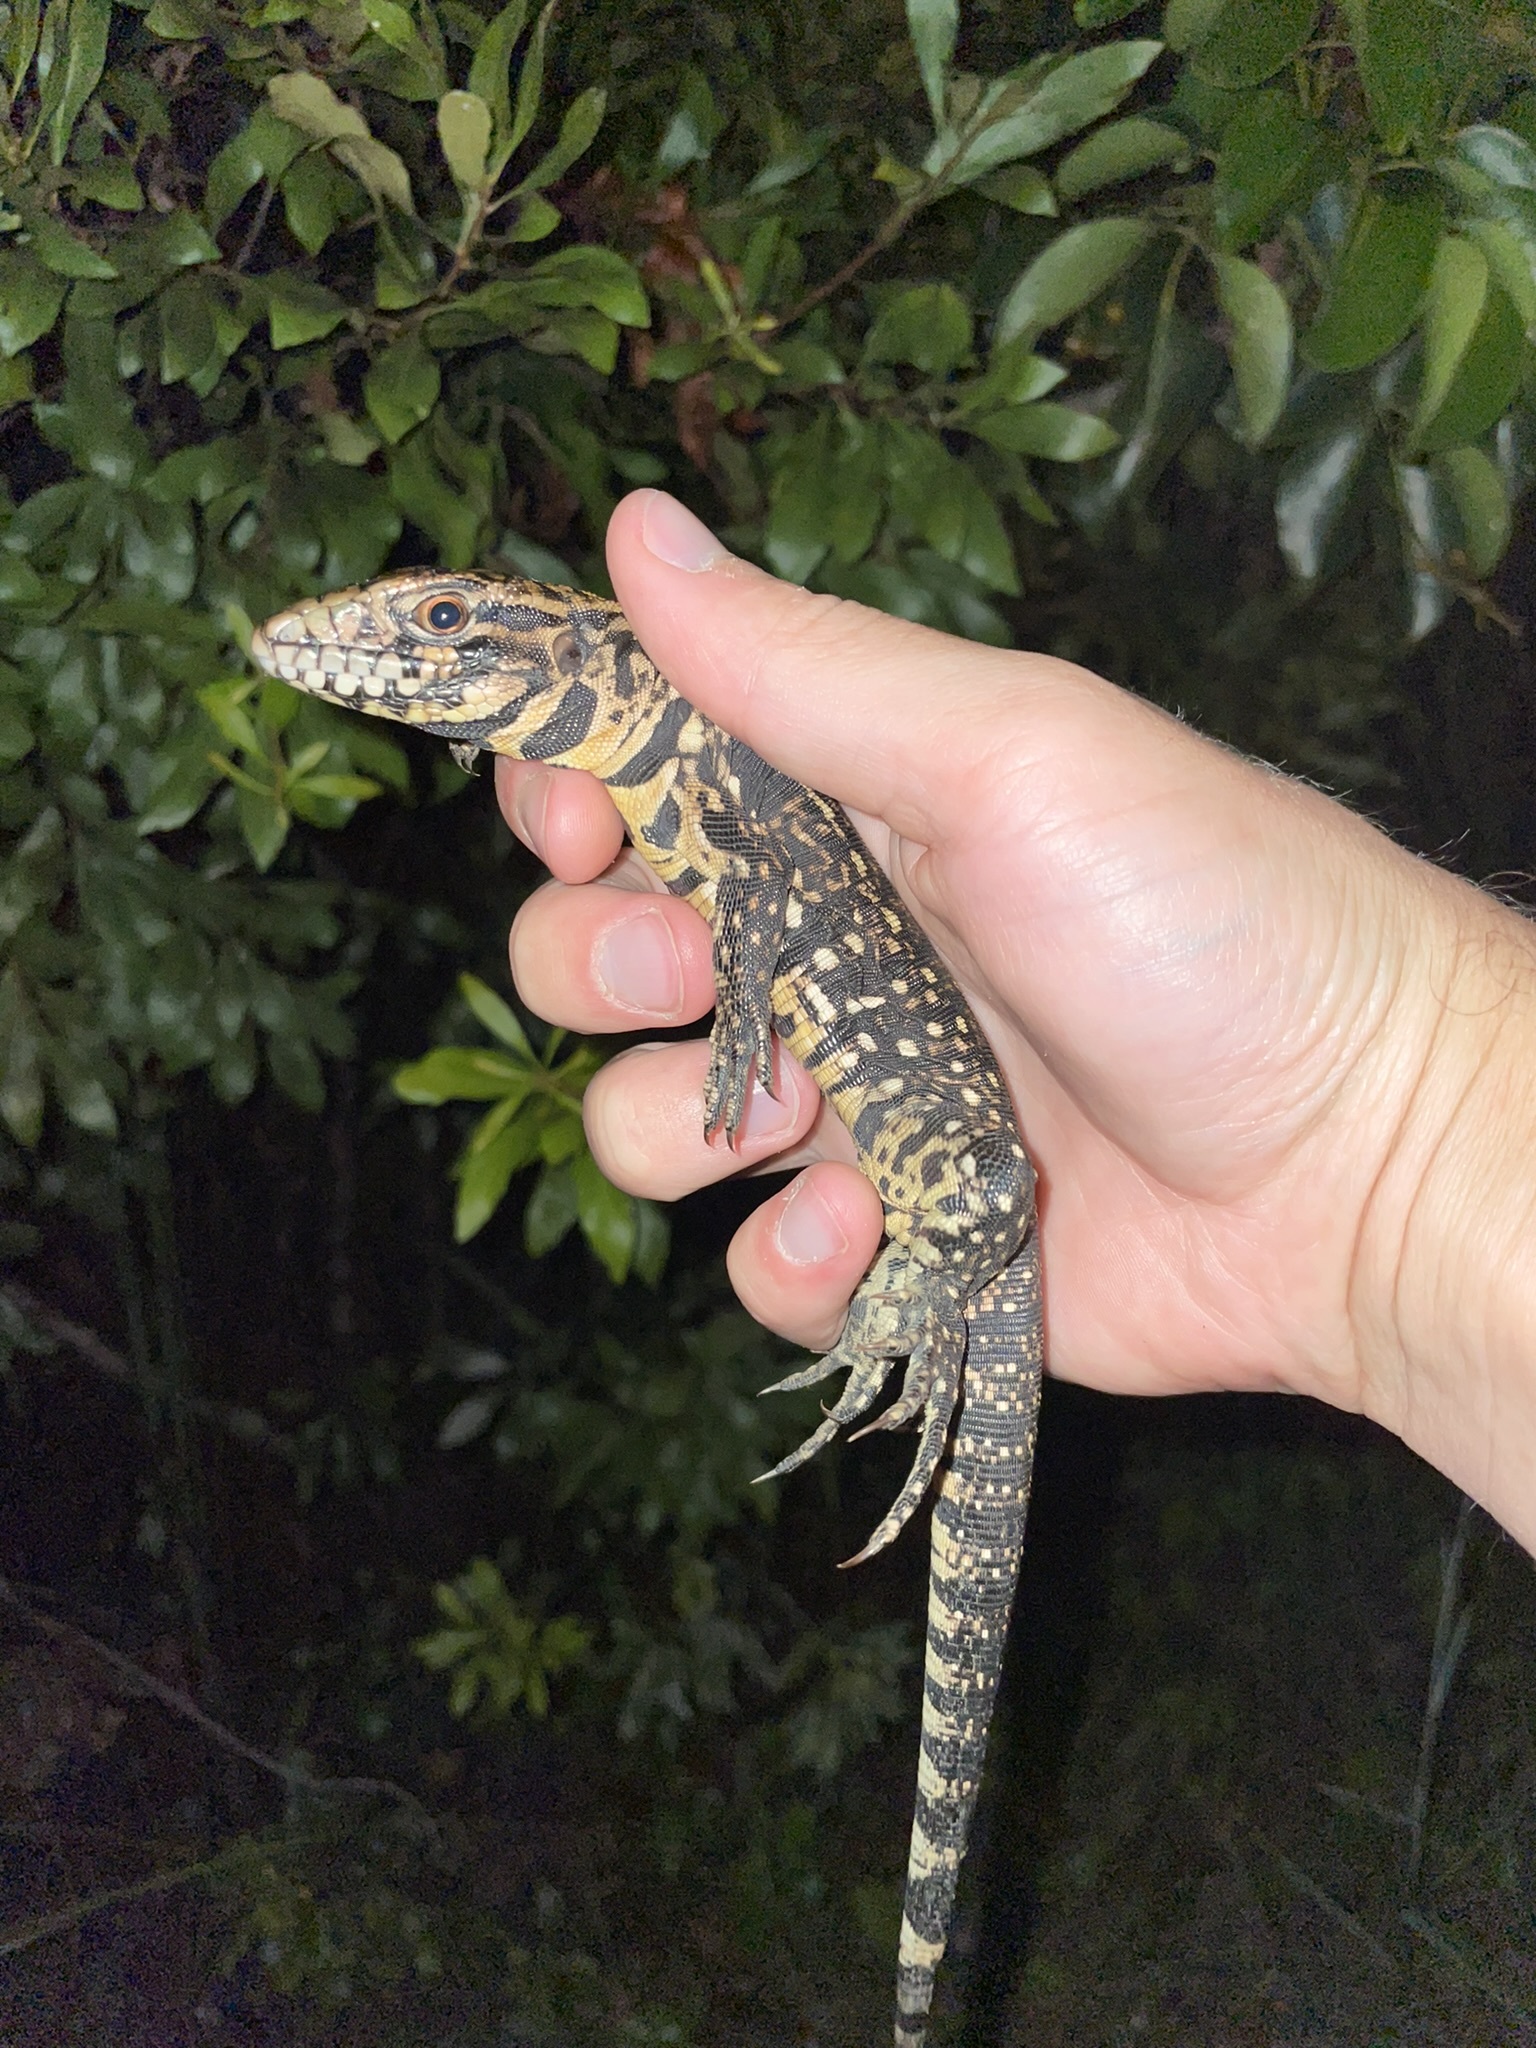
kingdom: Animalia
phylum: Chordata
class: Squamata
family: Teiidae
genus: Salvator
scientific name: Salvator merianae
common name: Argentine black and white tegu
